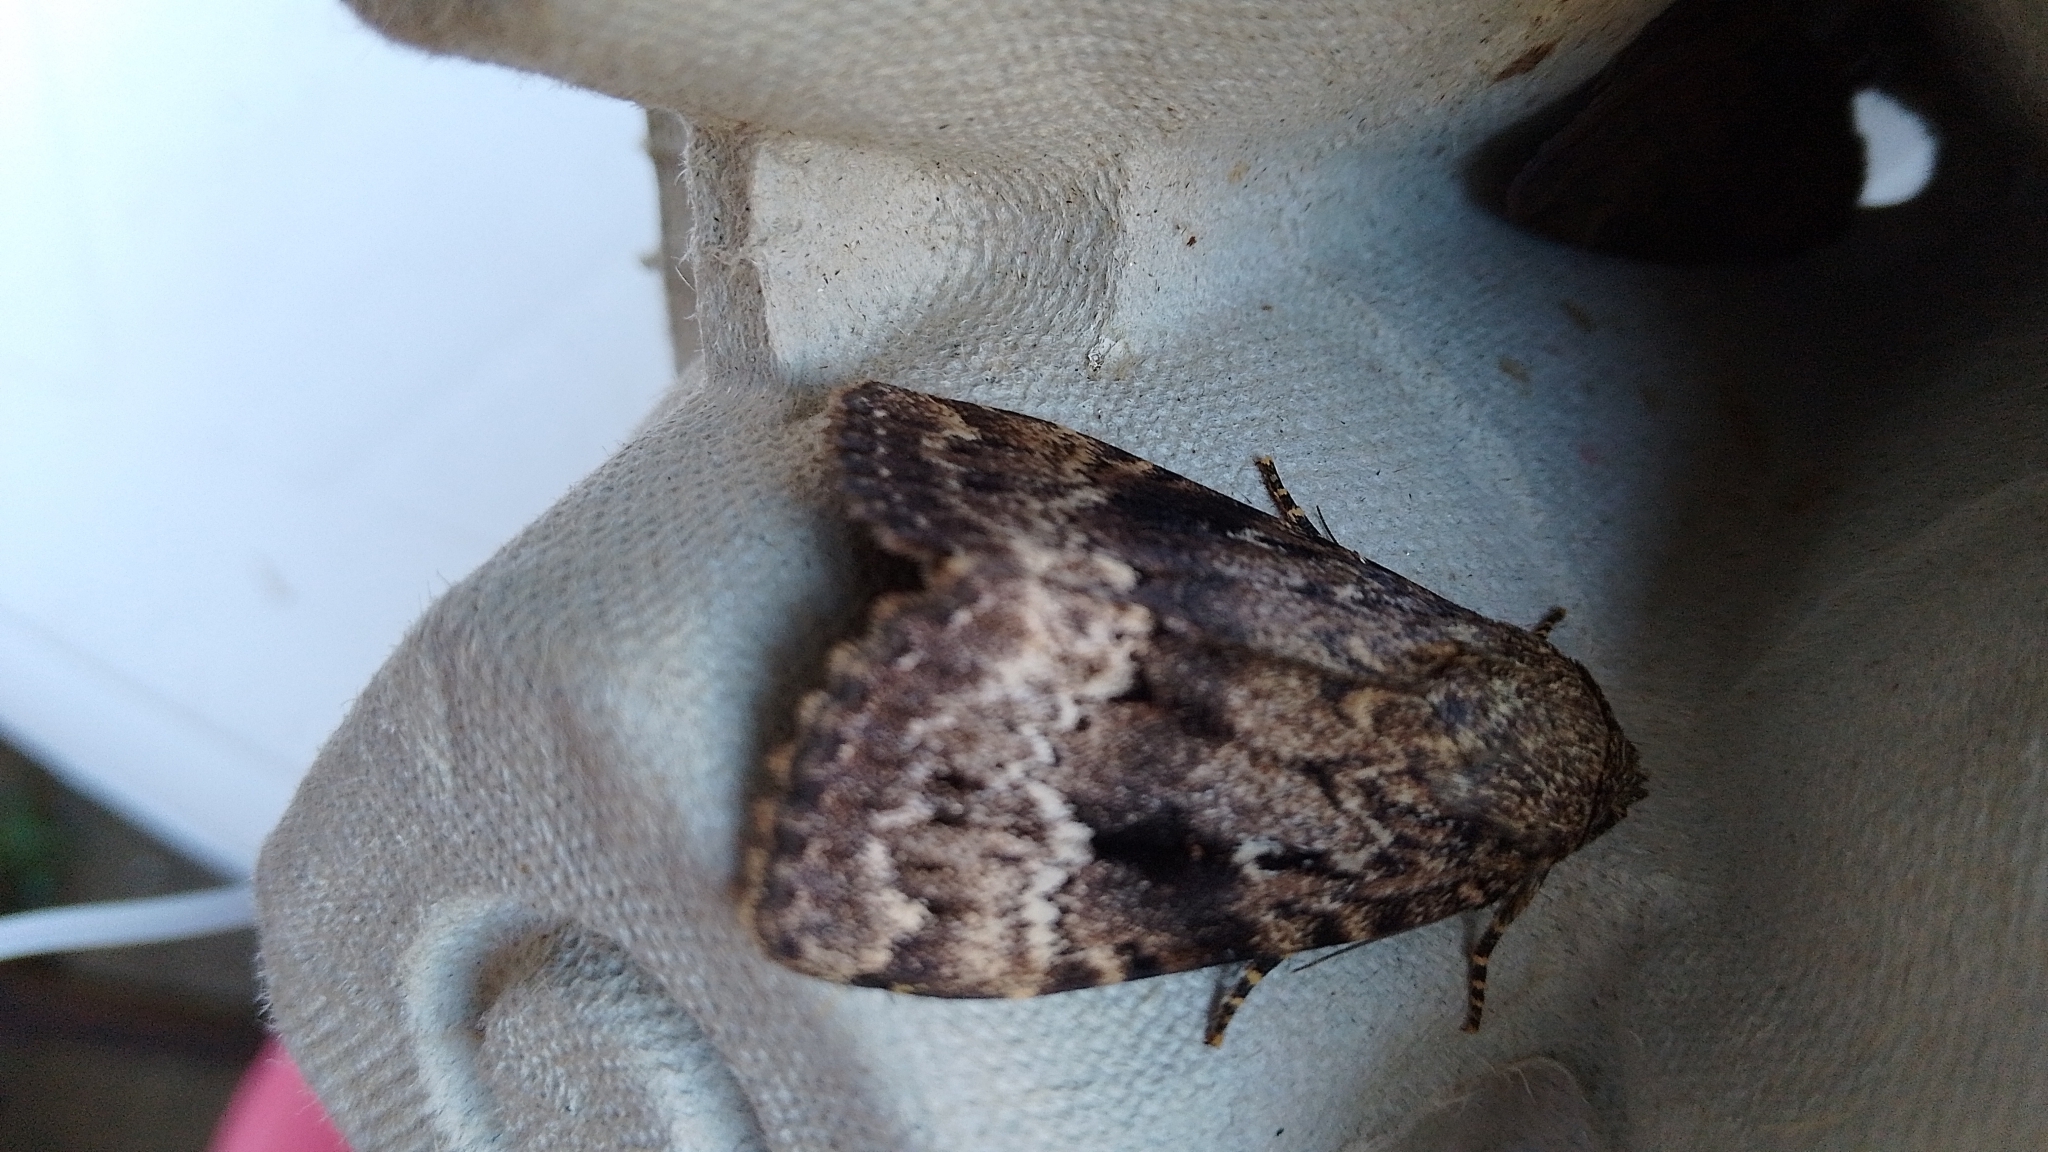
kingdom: Animalia
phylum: Arthropoda
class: Insecta
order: Lepidoptera
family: Noctuidae
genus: Amphipyra
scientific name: Amphipyra
